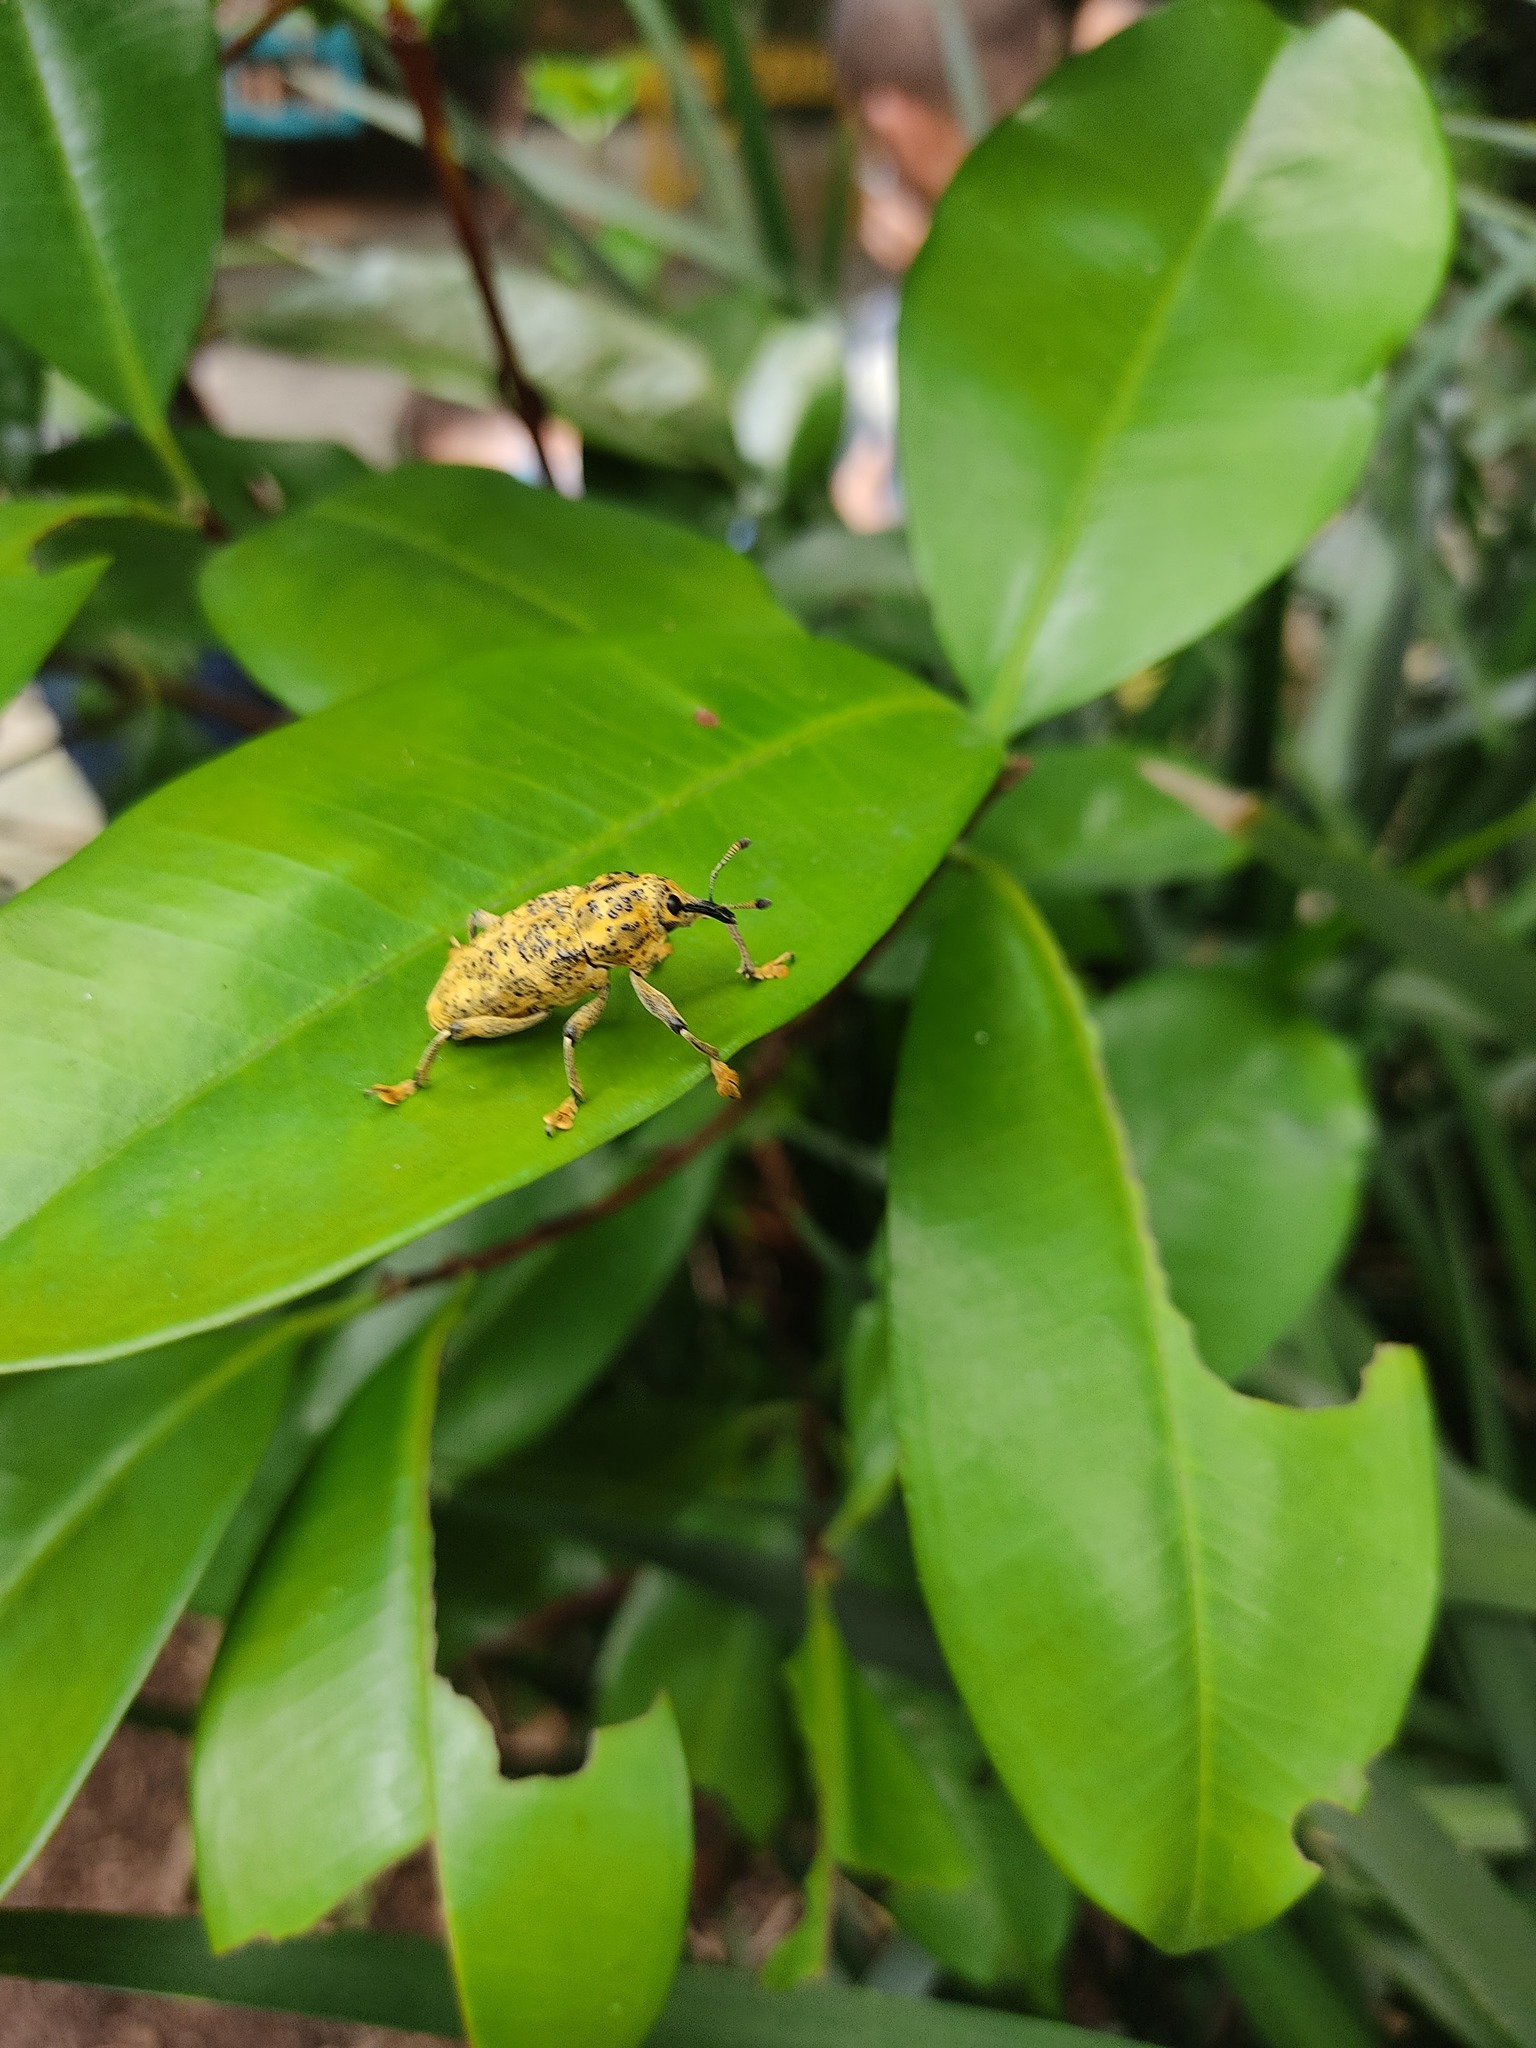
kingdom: Animalia
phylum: Arthropoda
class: Insecta
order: Coleoptera
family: Curculionidae
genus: Ameris
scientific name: Ameris ynca
